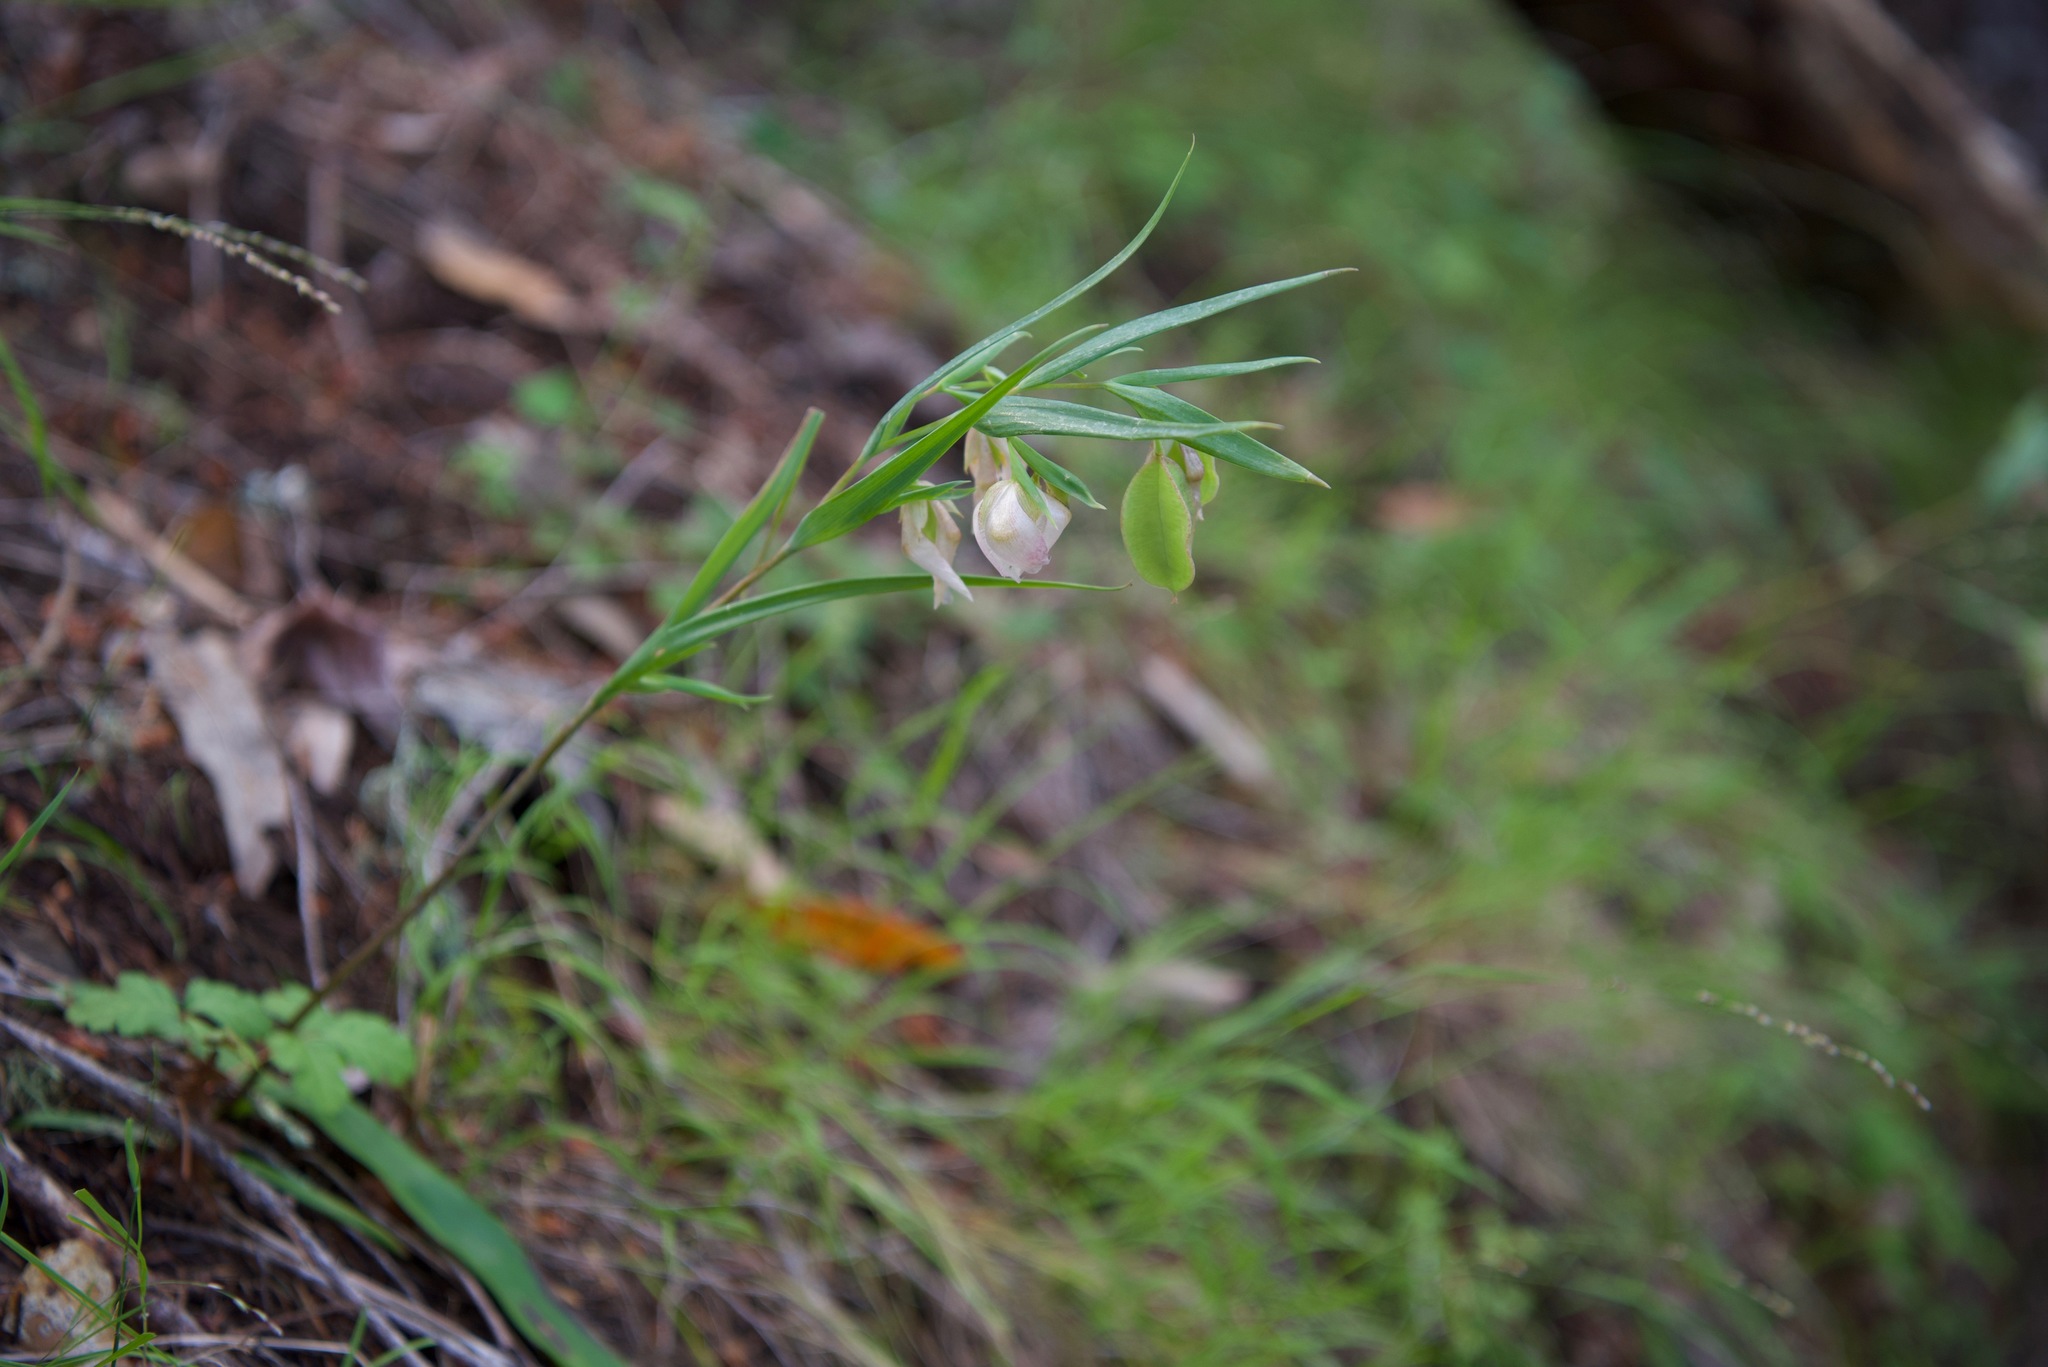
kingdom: Plantae
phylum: Tracheophyta
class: Liliopsida
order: Liliales
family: Liliaceae
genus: Calochortus
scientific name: Calochortus albus
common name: Fairy-lantern
